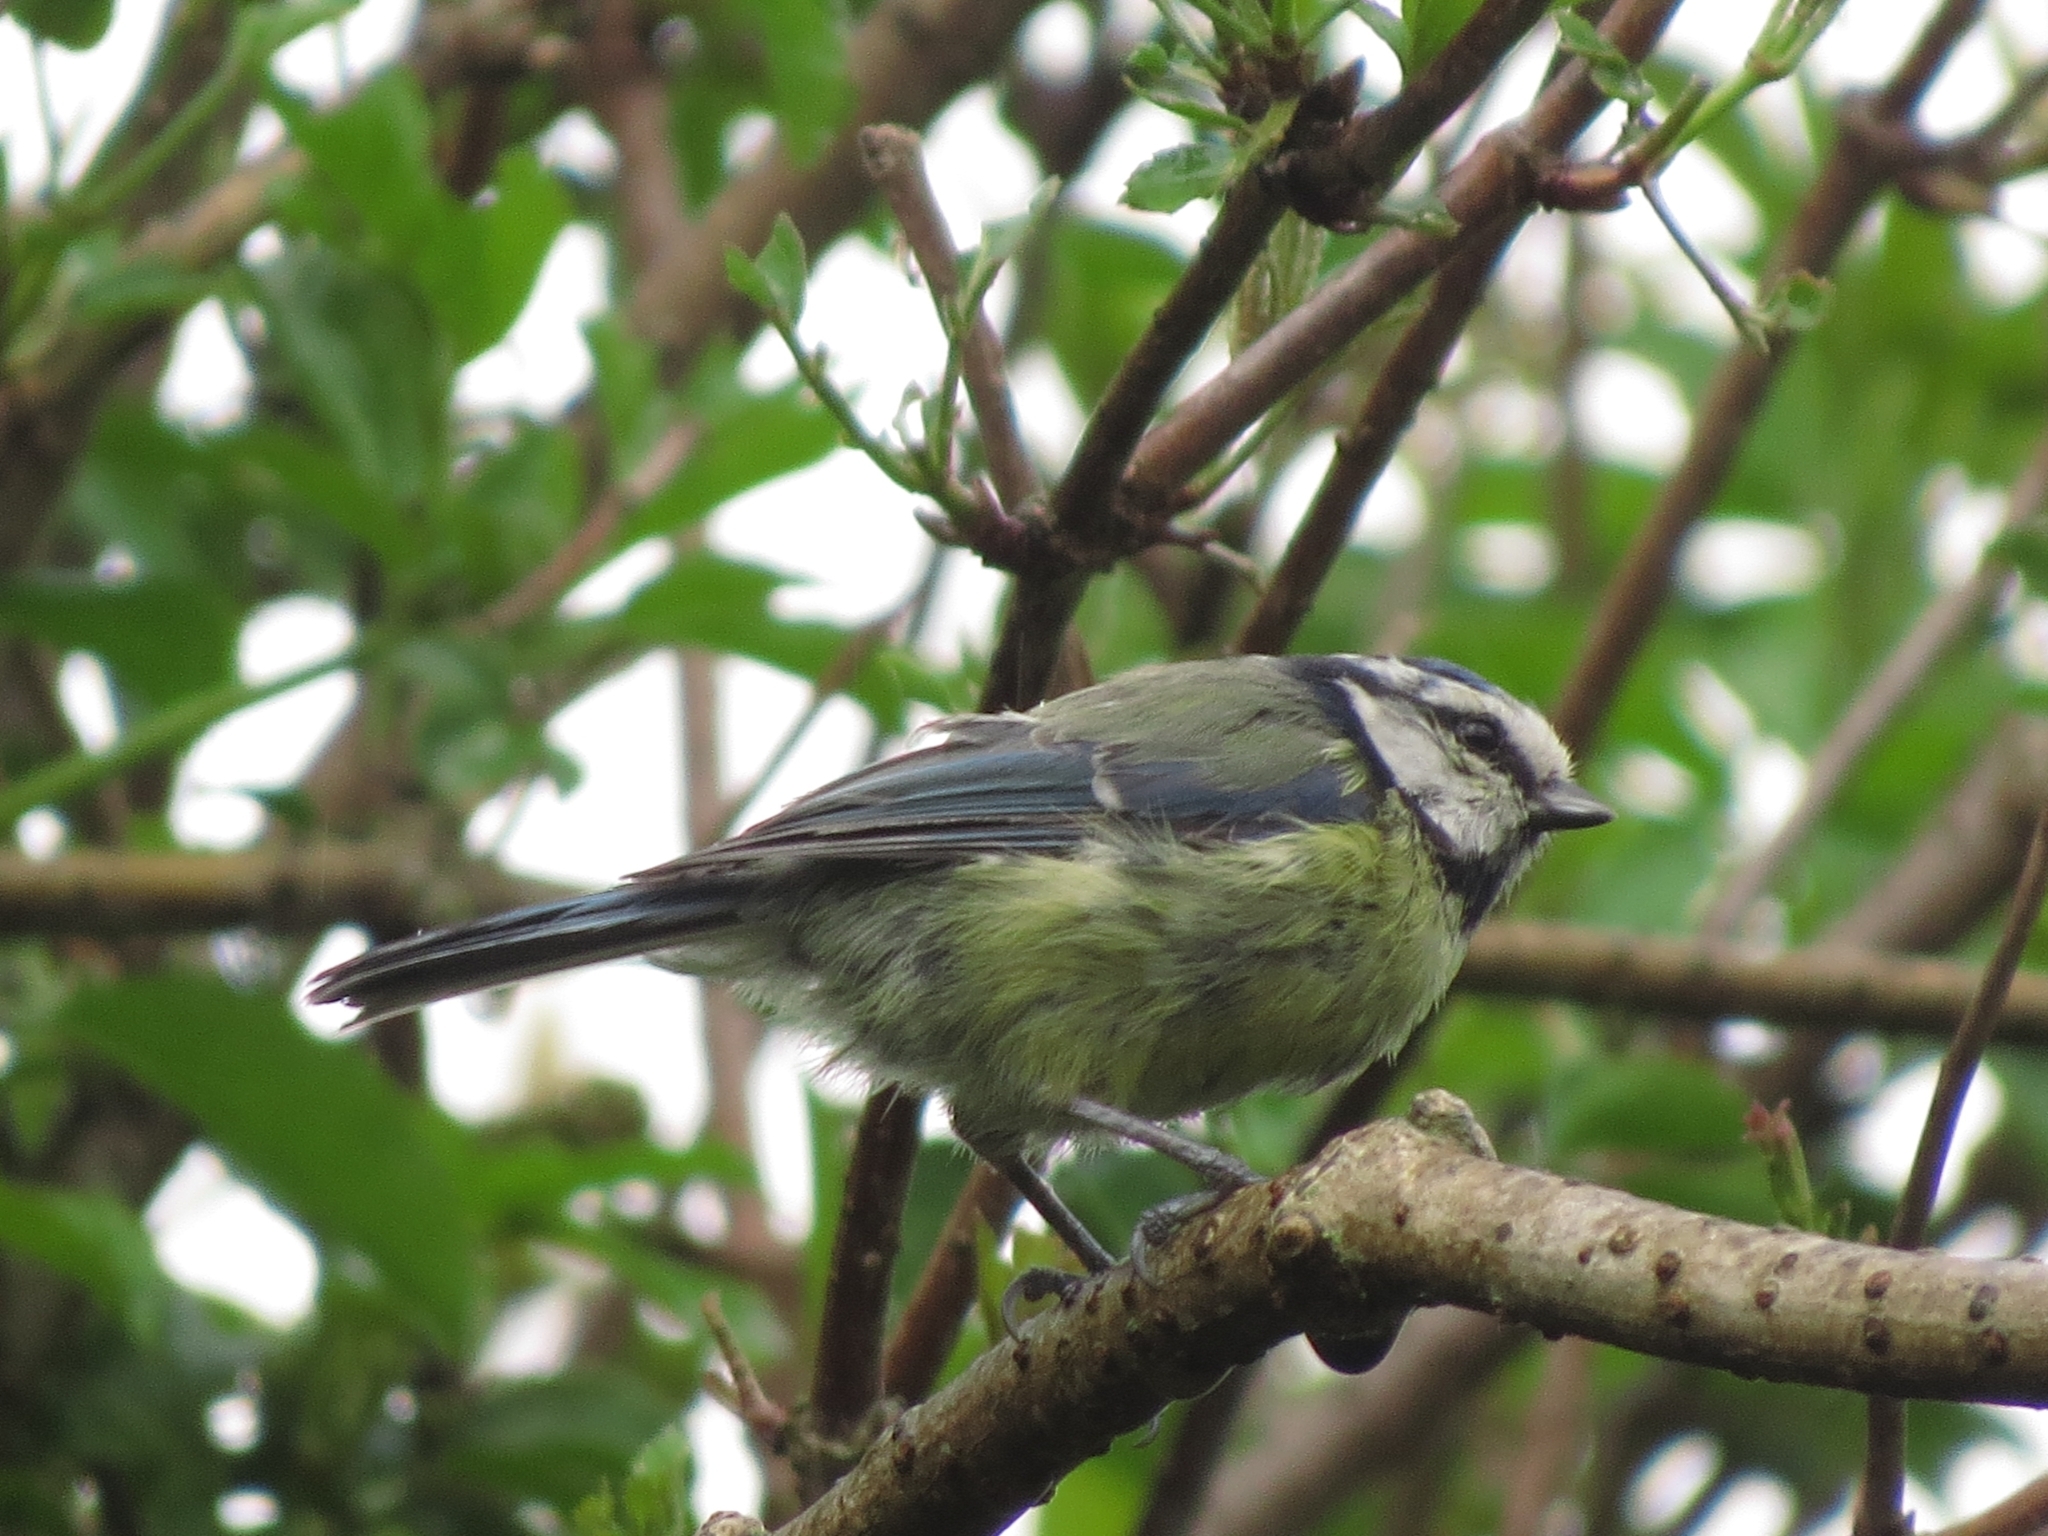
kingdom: Animalia
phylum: Chordata
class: Aves
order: Passeriformes
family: Paridae
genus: Cyanistes
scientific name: Cyanistes caeruleus
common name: Eurasian blue tit
